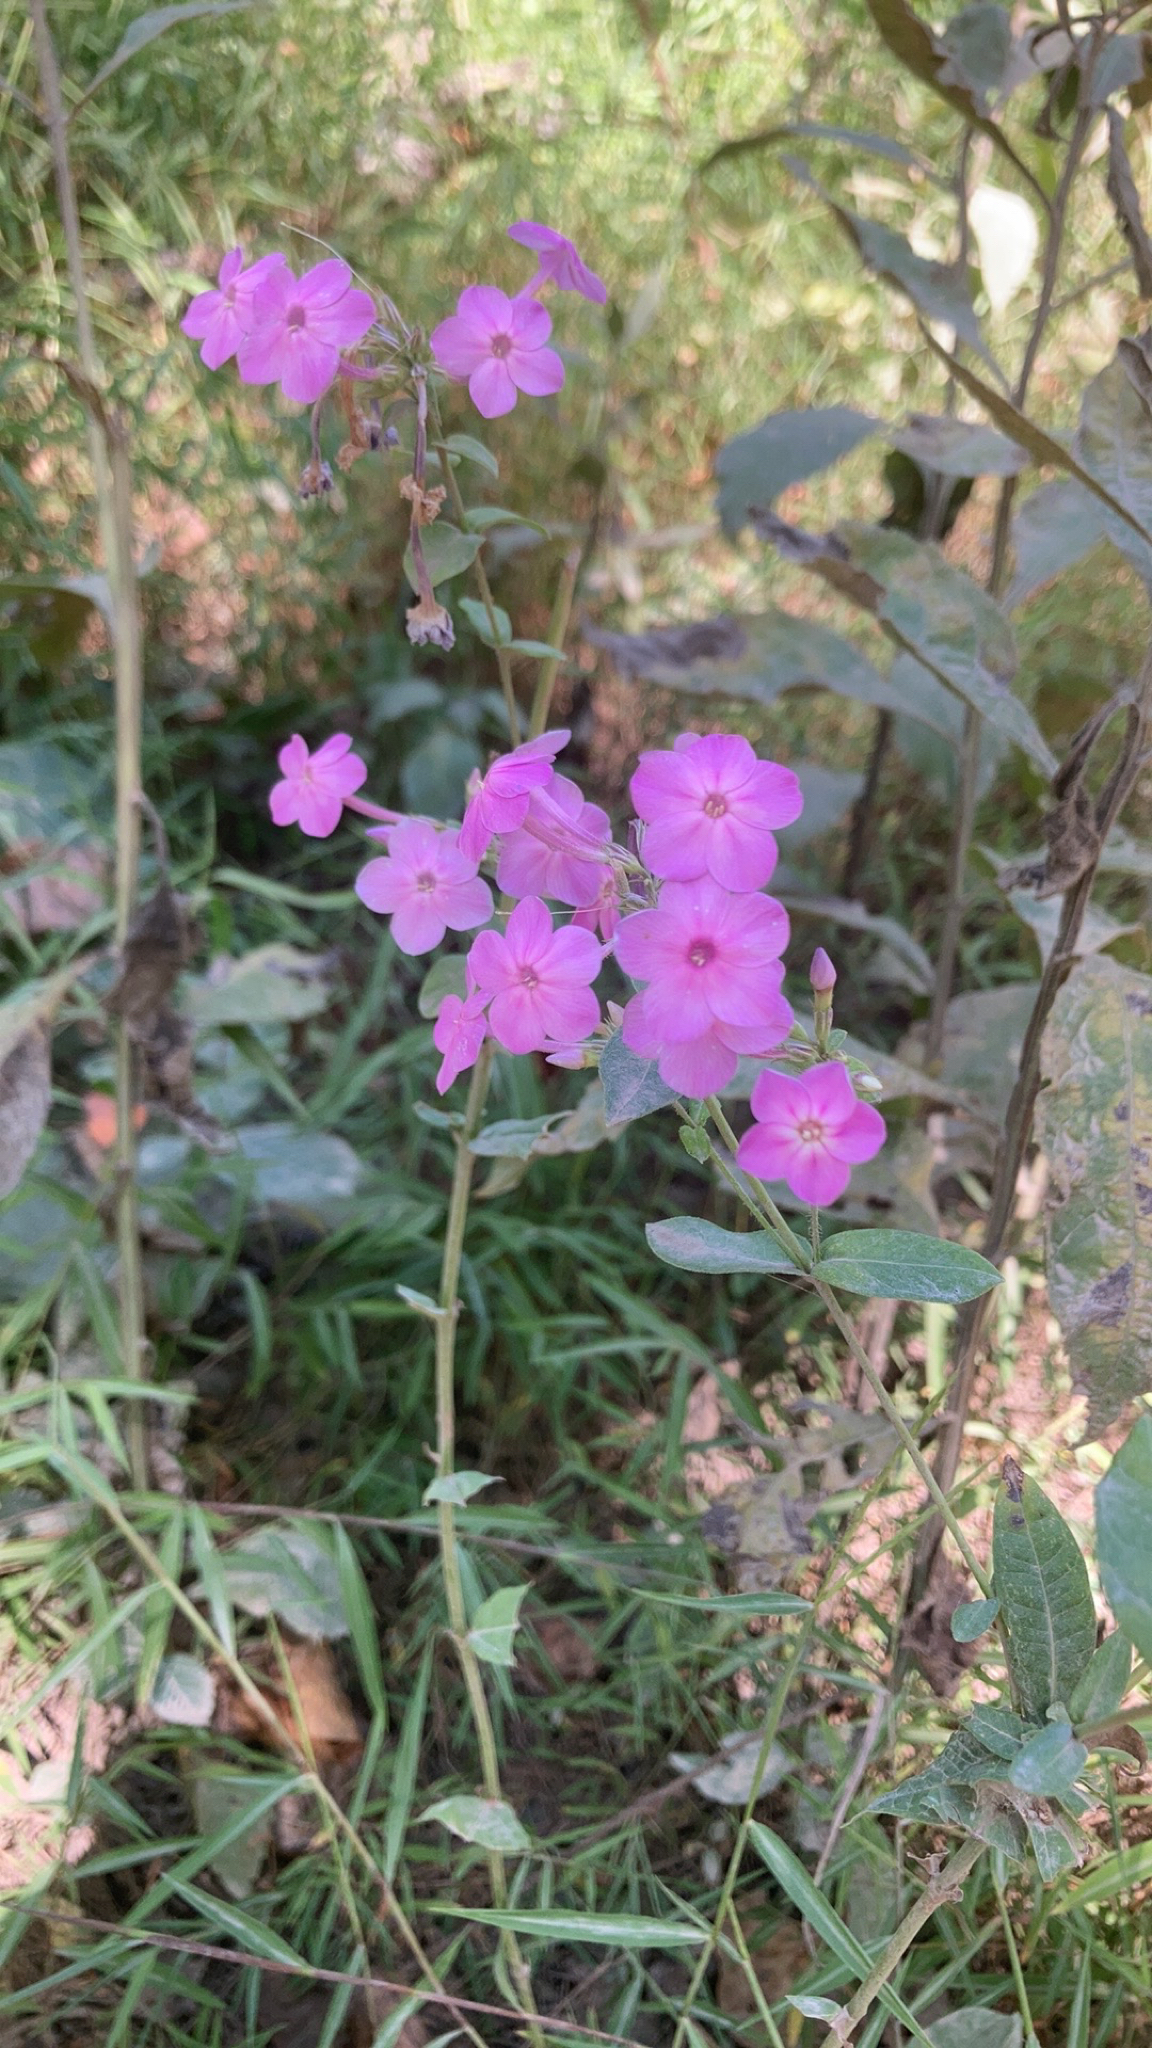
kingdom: Plantae
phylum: Tracheophyta
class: Magnoliopsida
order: Ericales
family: Polemoniaceae
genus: Phlox
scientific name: Phlox paniculata
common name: Fall phlox
